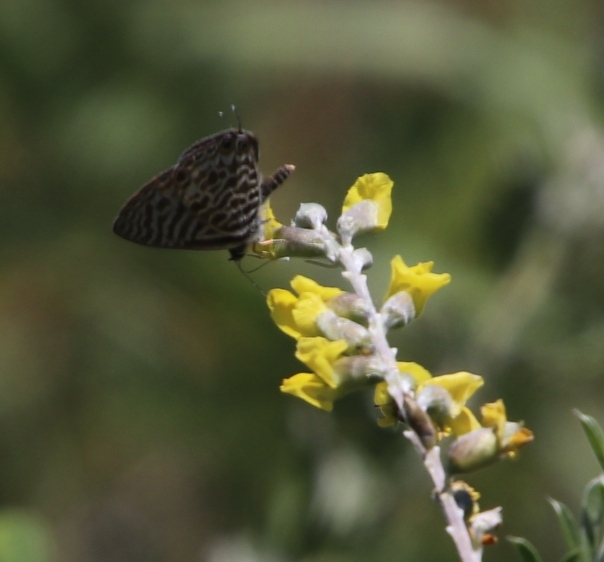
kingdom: Animalia
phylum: Arthropoda
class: Insecta
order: Lepidoptera
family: Lycaenidae
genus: Leptotes
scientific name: Leptotes
